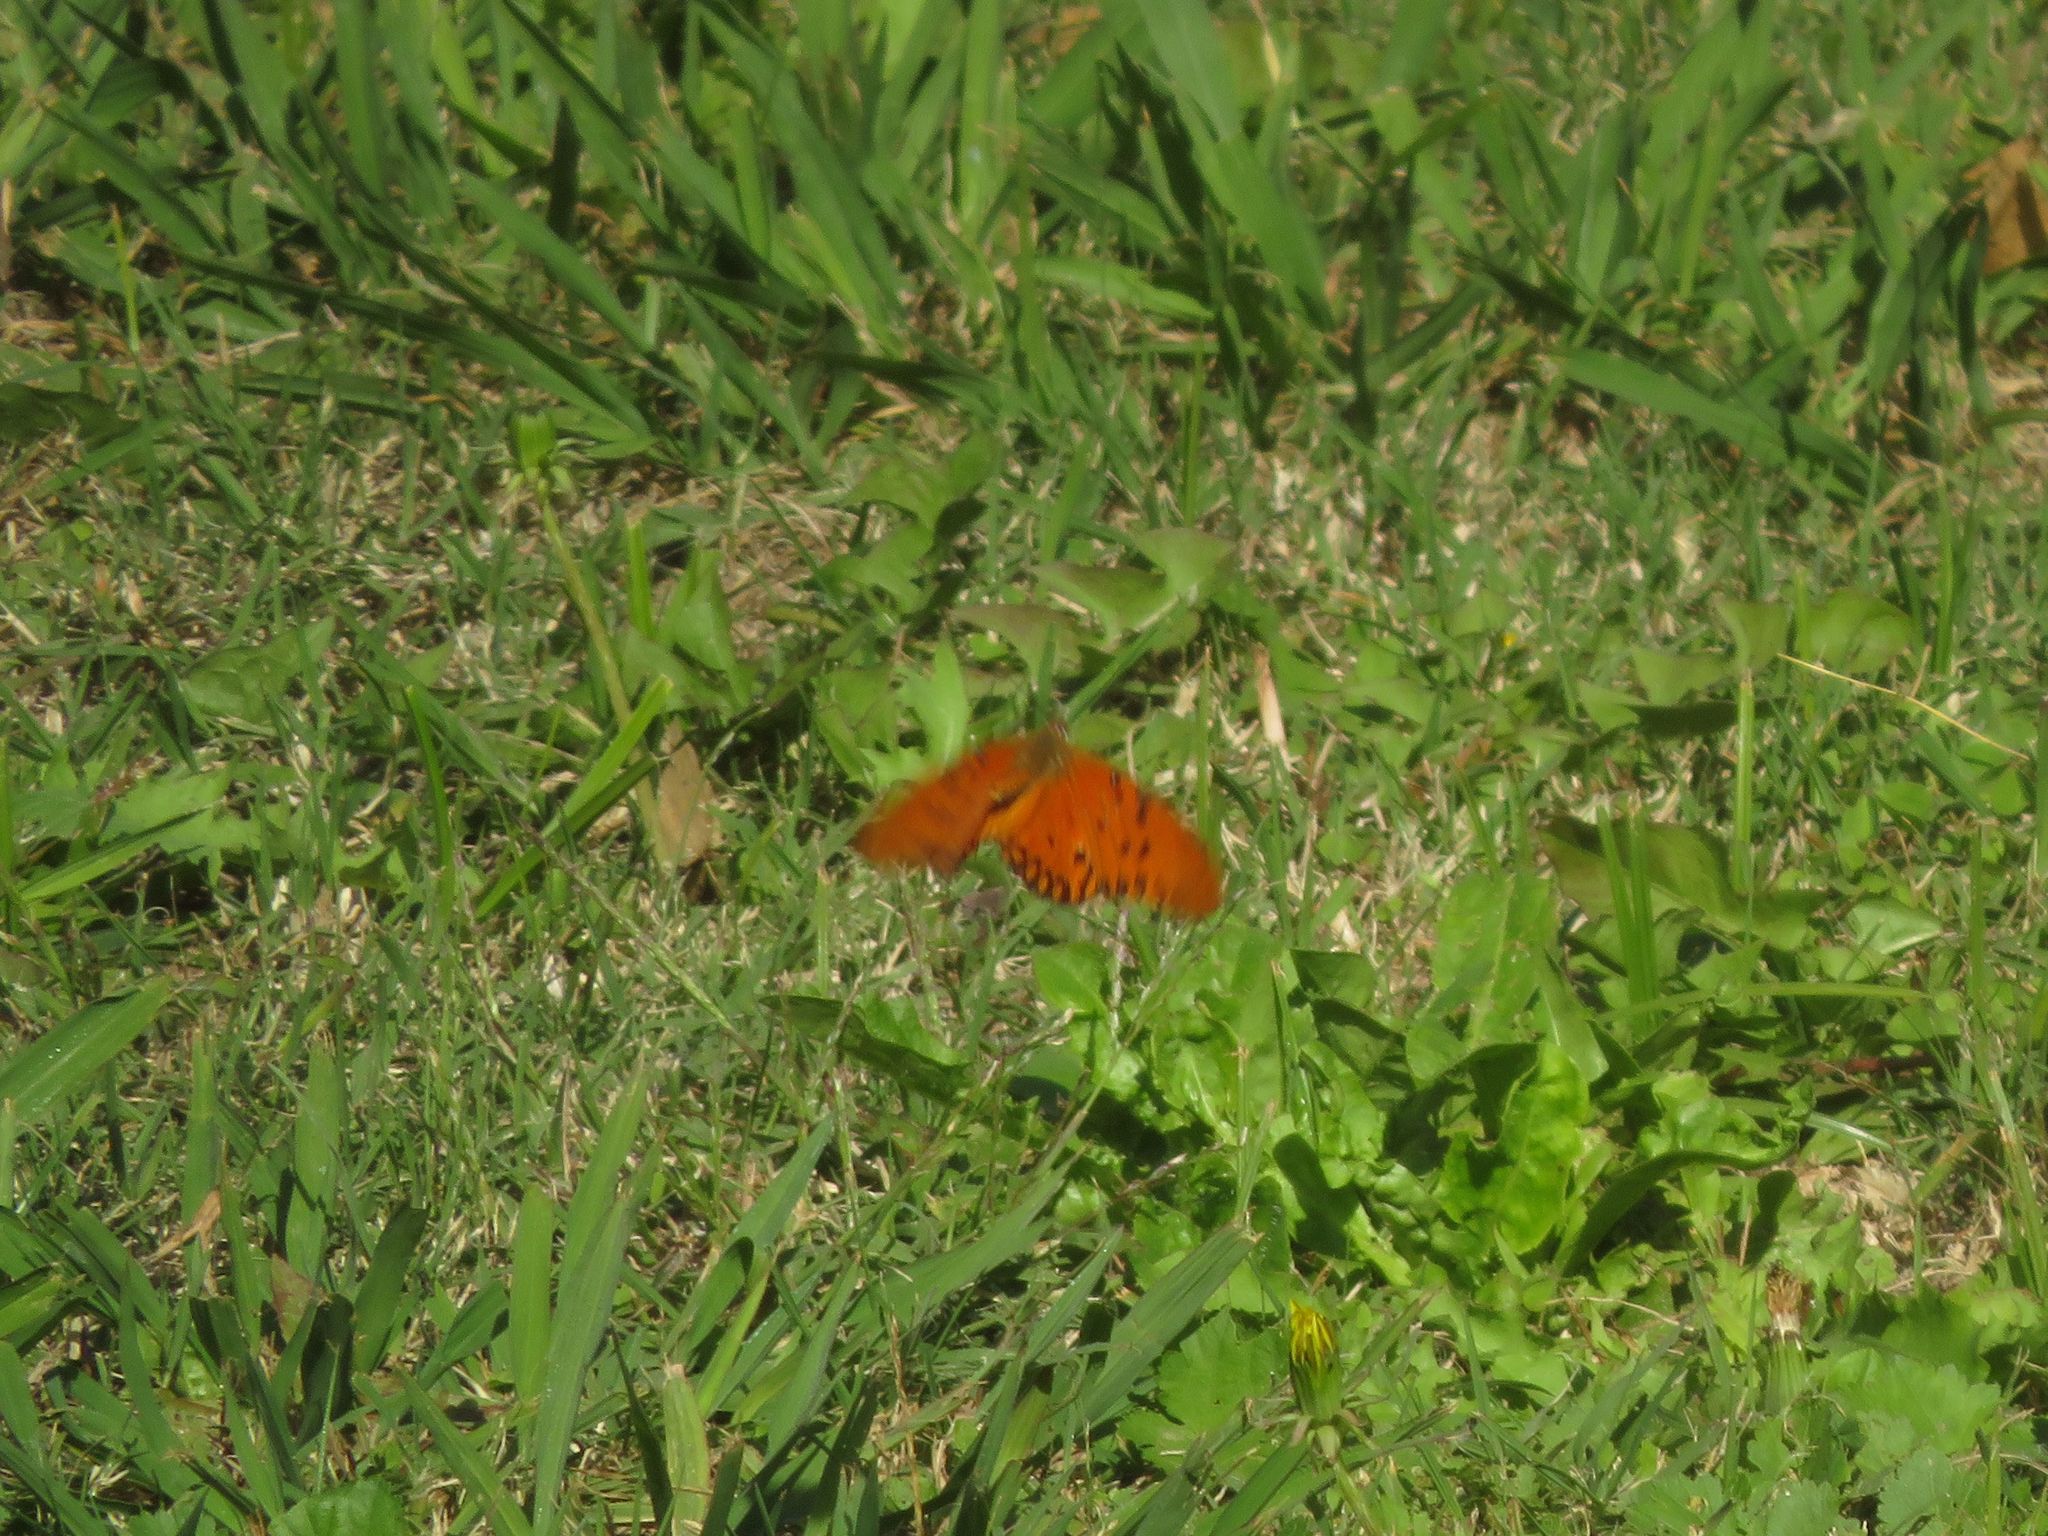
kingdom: Animalia
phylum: Arthropoda
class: Insecta
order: Lepidoptera
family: Nymphalidae
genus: Dione
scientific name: Dione vanillae
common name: Gulf fritillary
